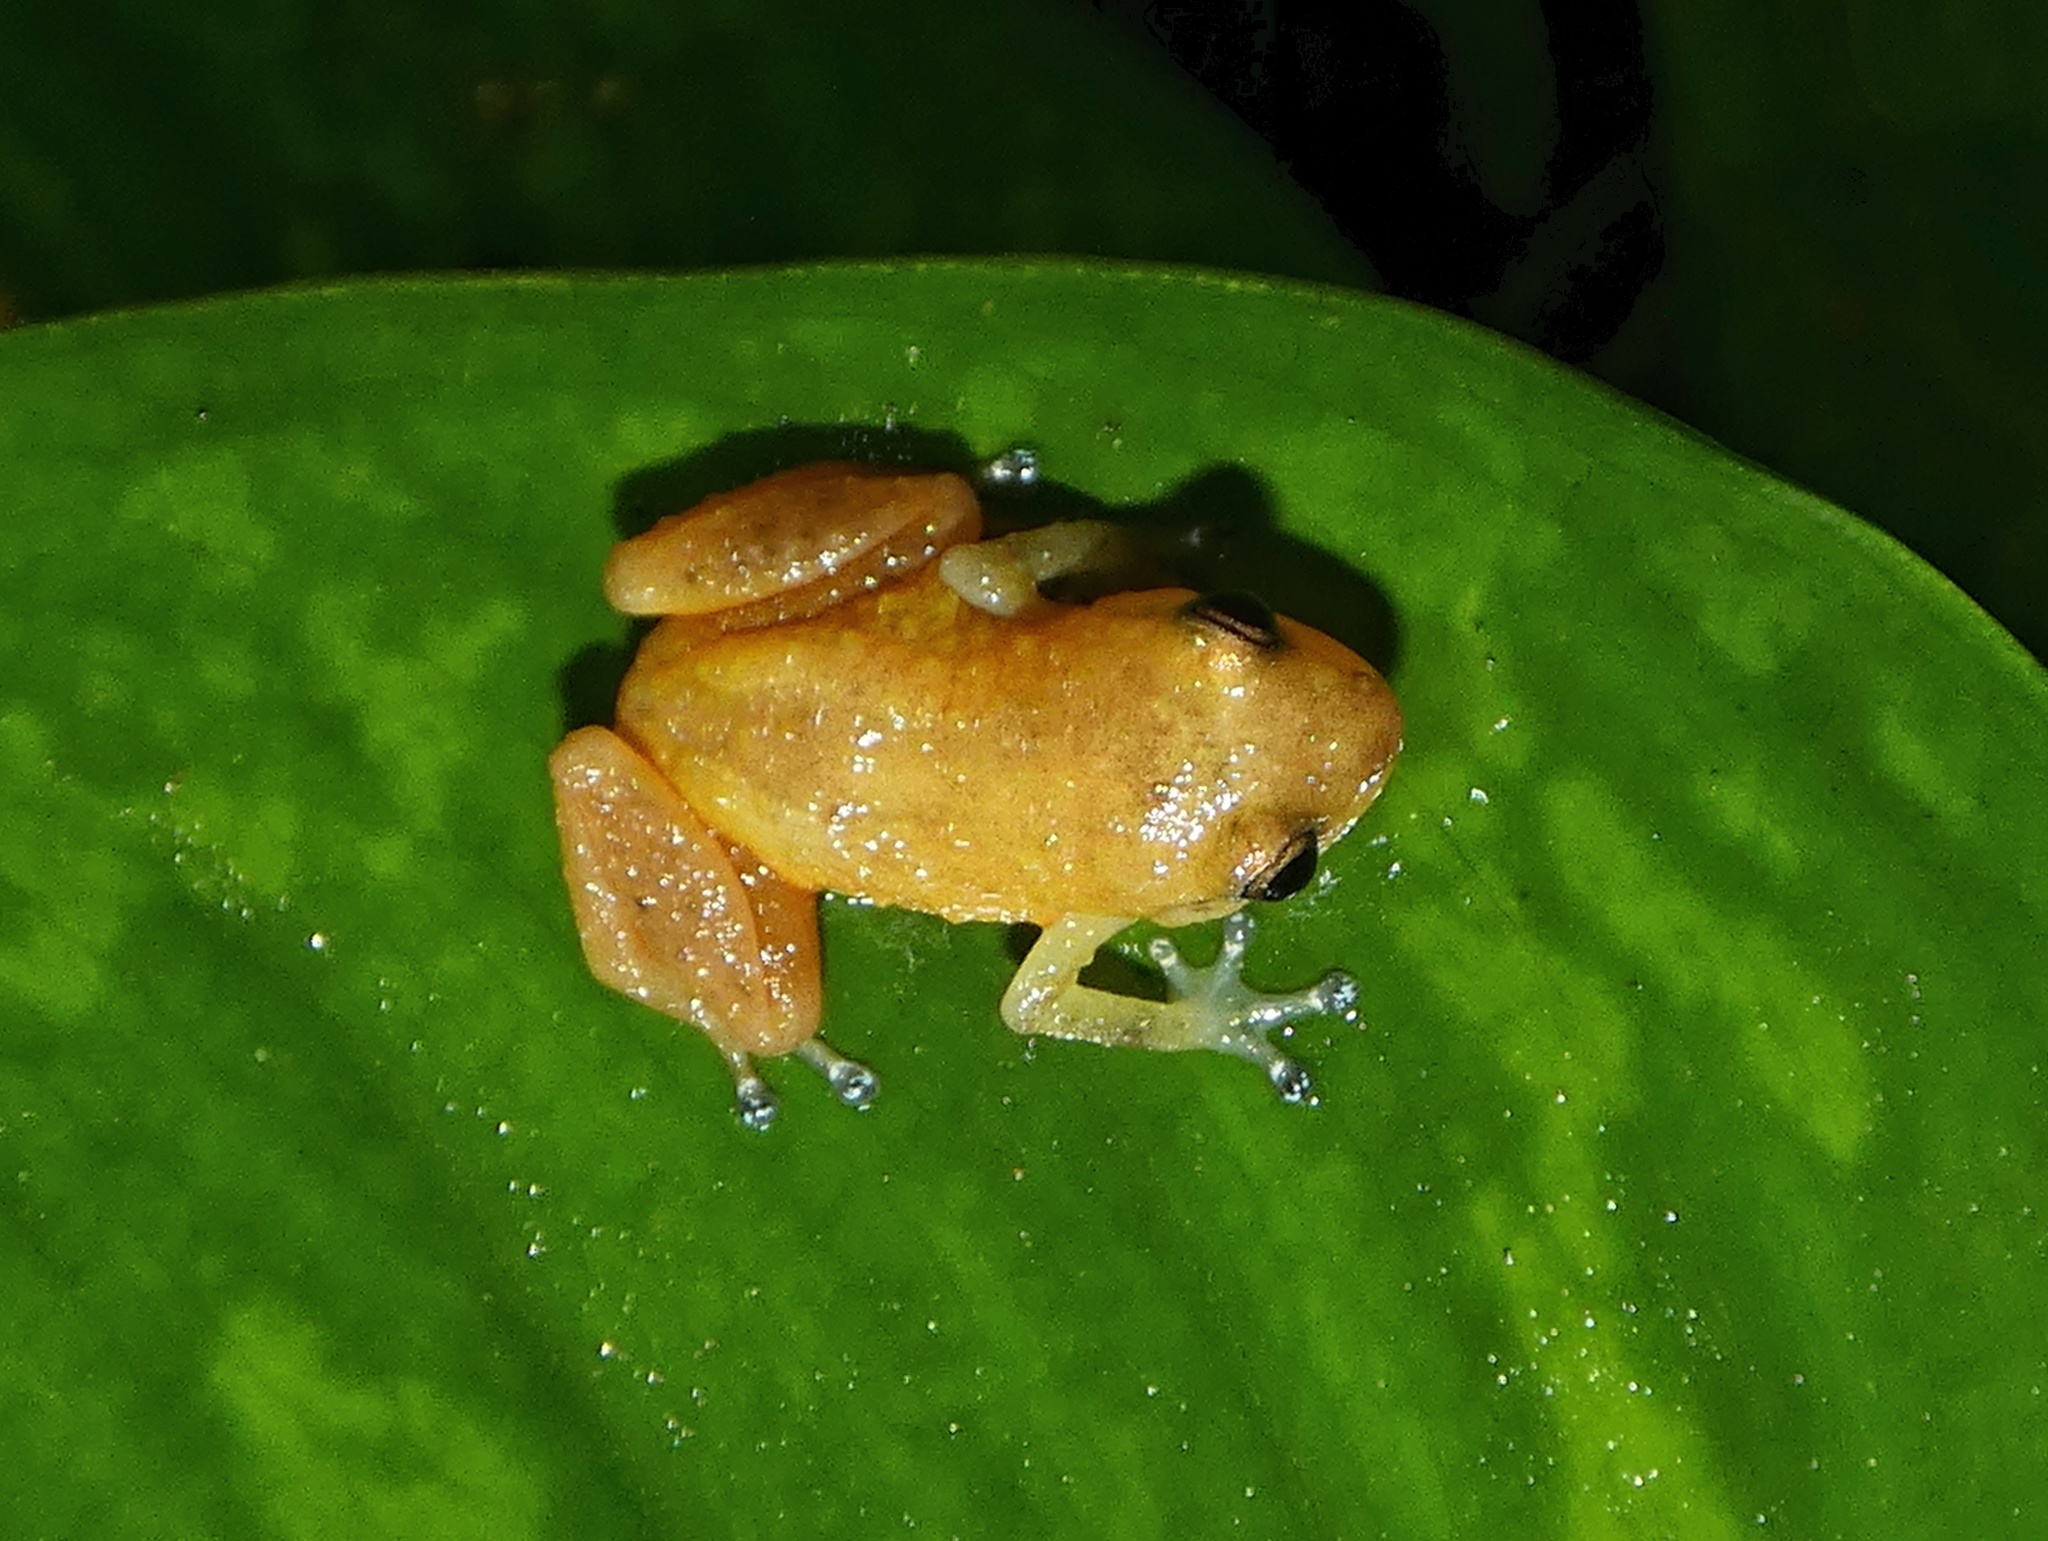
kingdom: Animalia
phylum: Chordata
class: Amphibia
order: Anura
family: Eleutherodactylidae
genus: Diasporus
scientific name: Diasporus citrinobapheus
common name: Yellow dink frog
